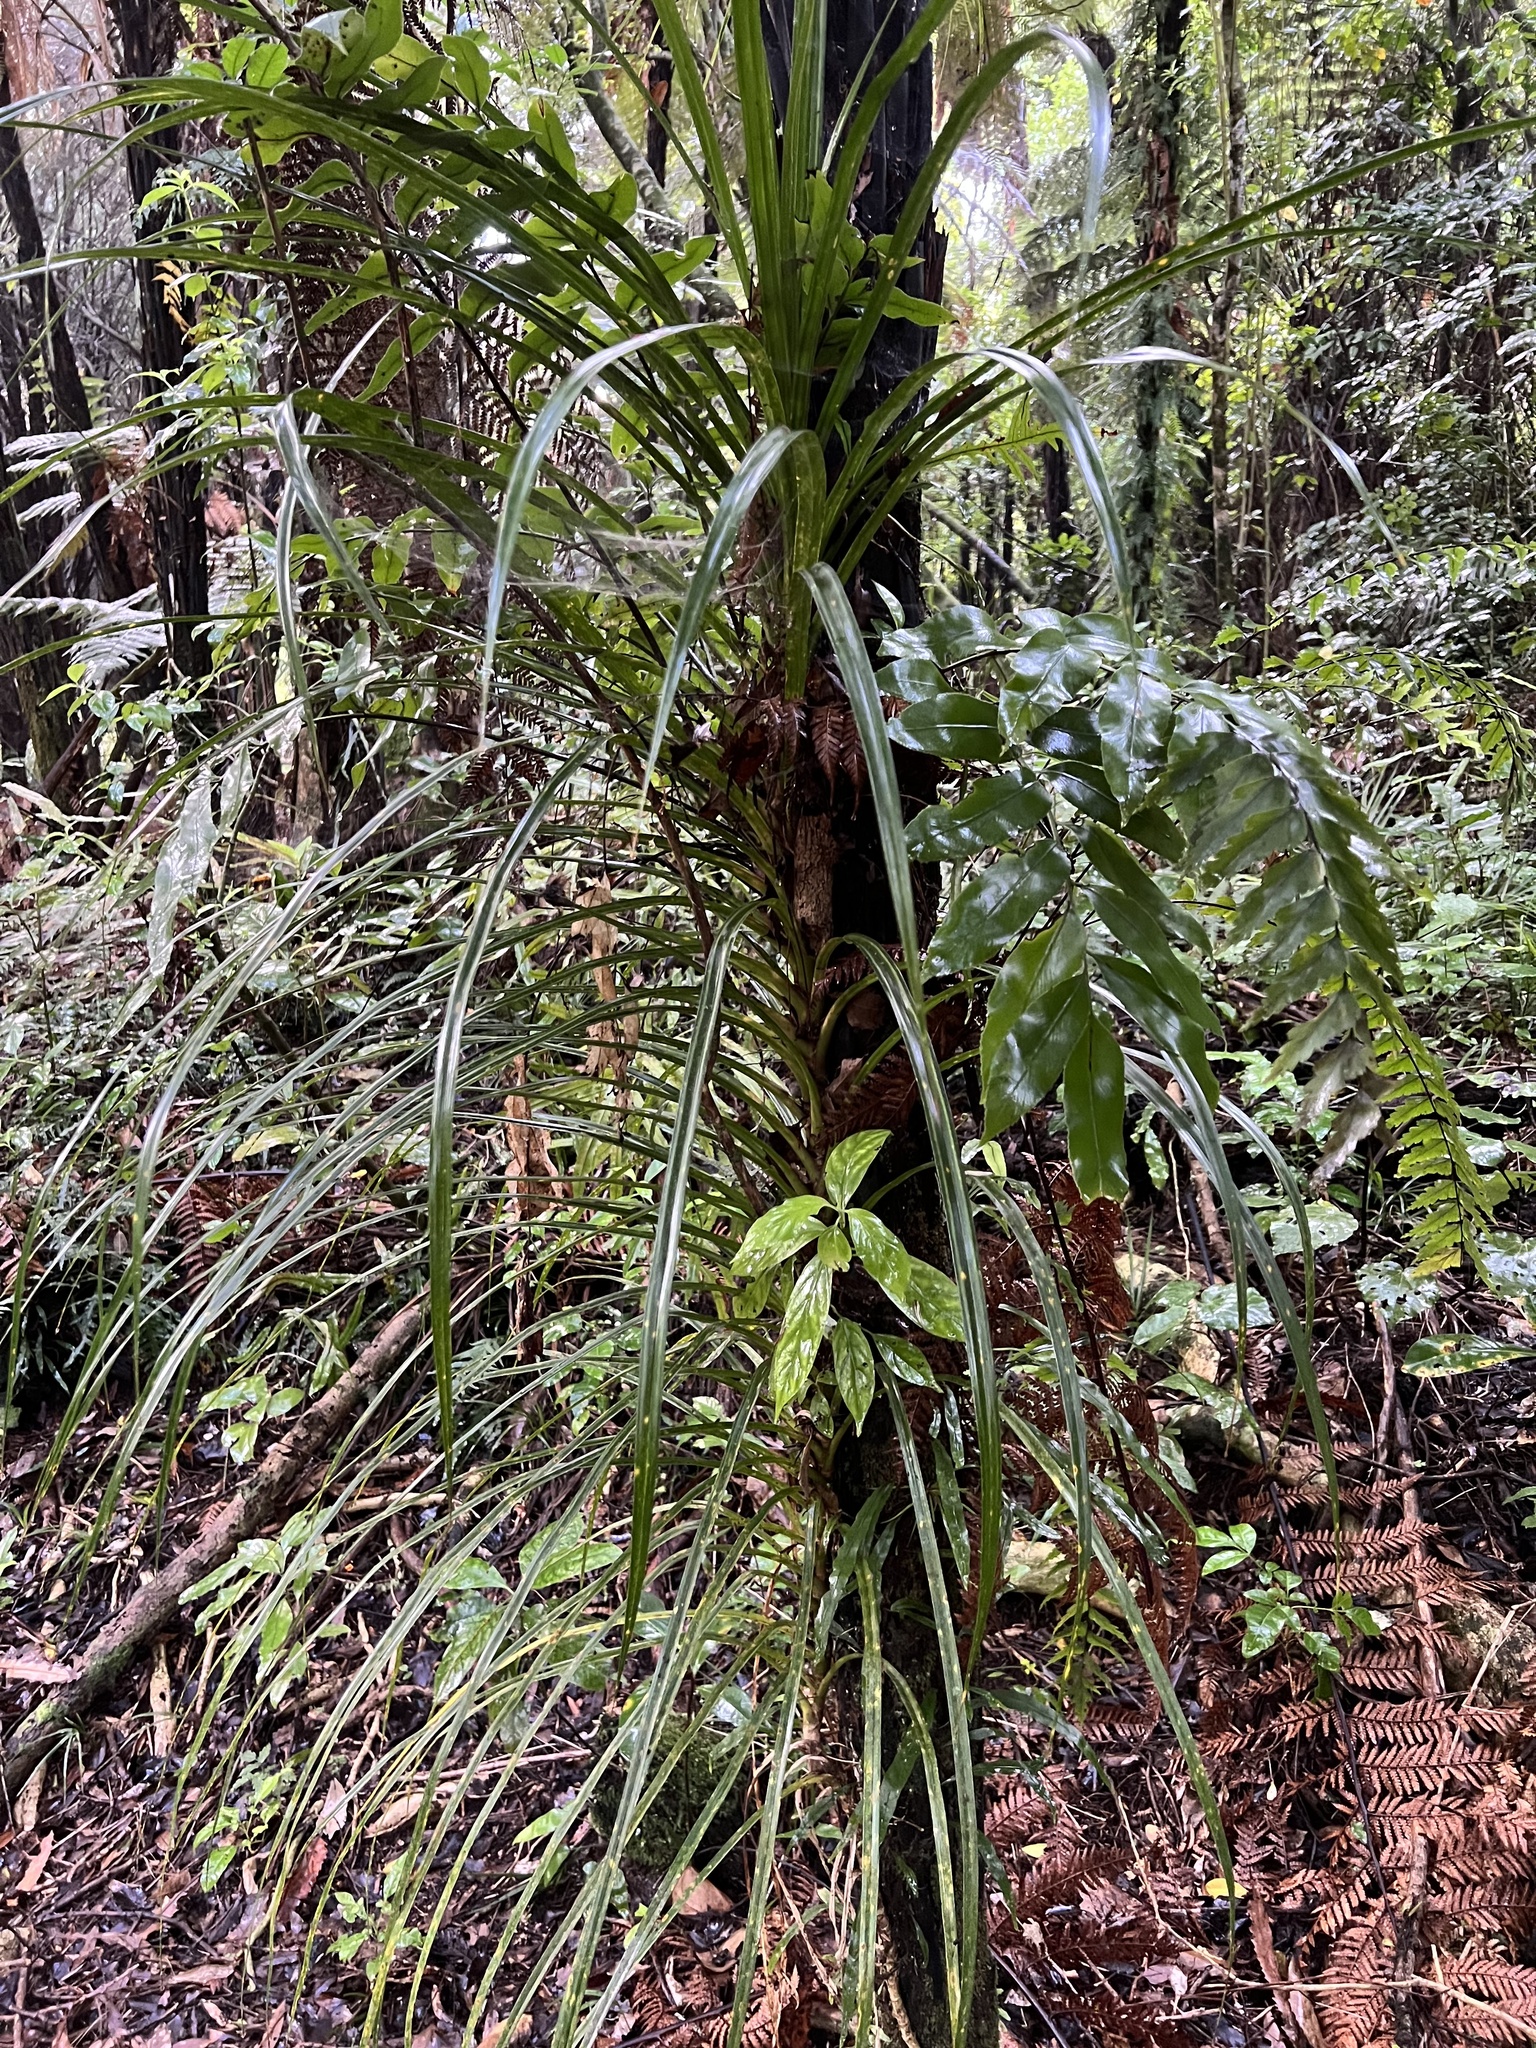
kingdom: Plantae
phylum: Tracheophyta
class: Liliopsida
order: Pandanales
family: Pandanaceae
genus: Freycinetia
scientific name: Freycinetia banksii
